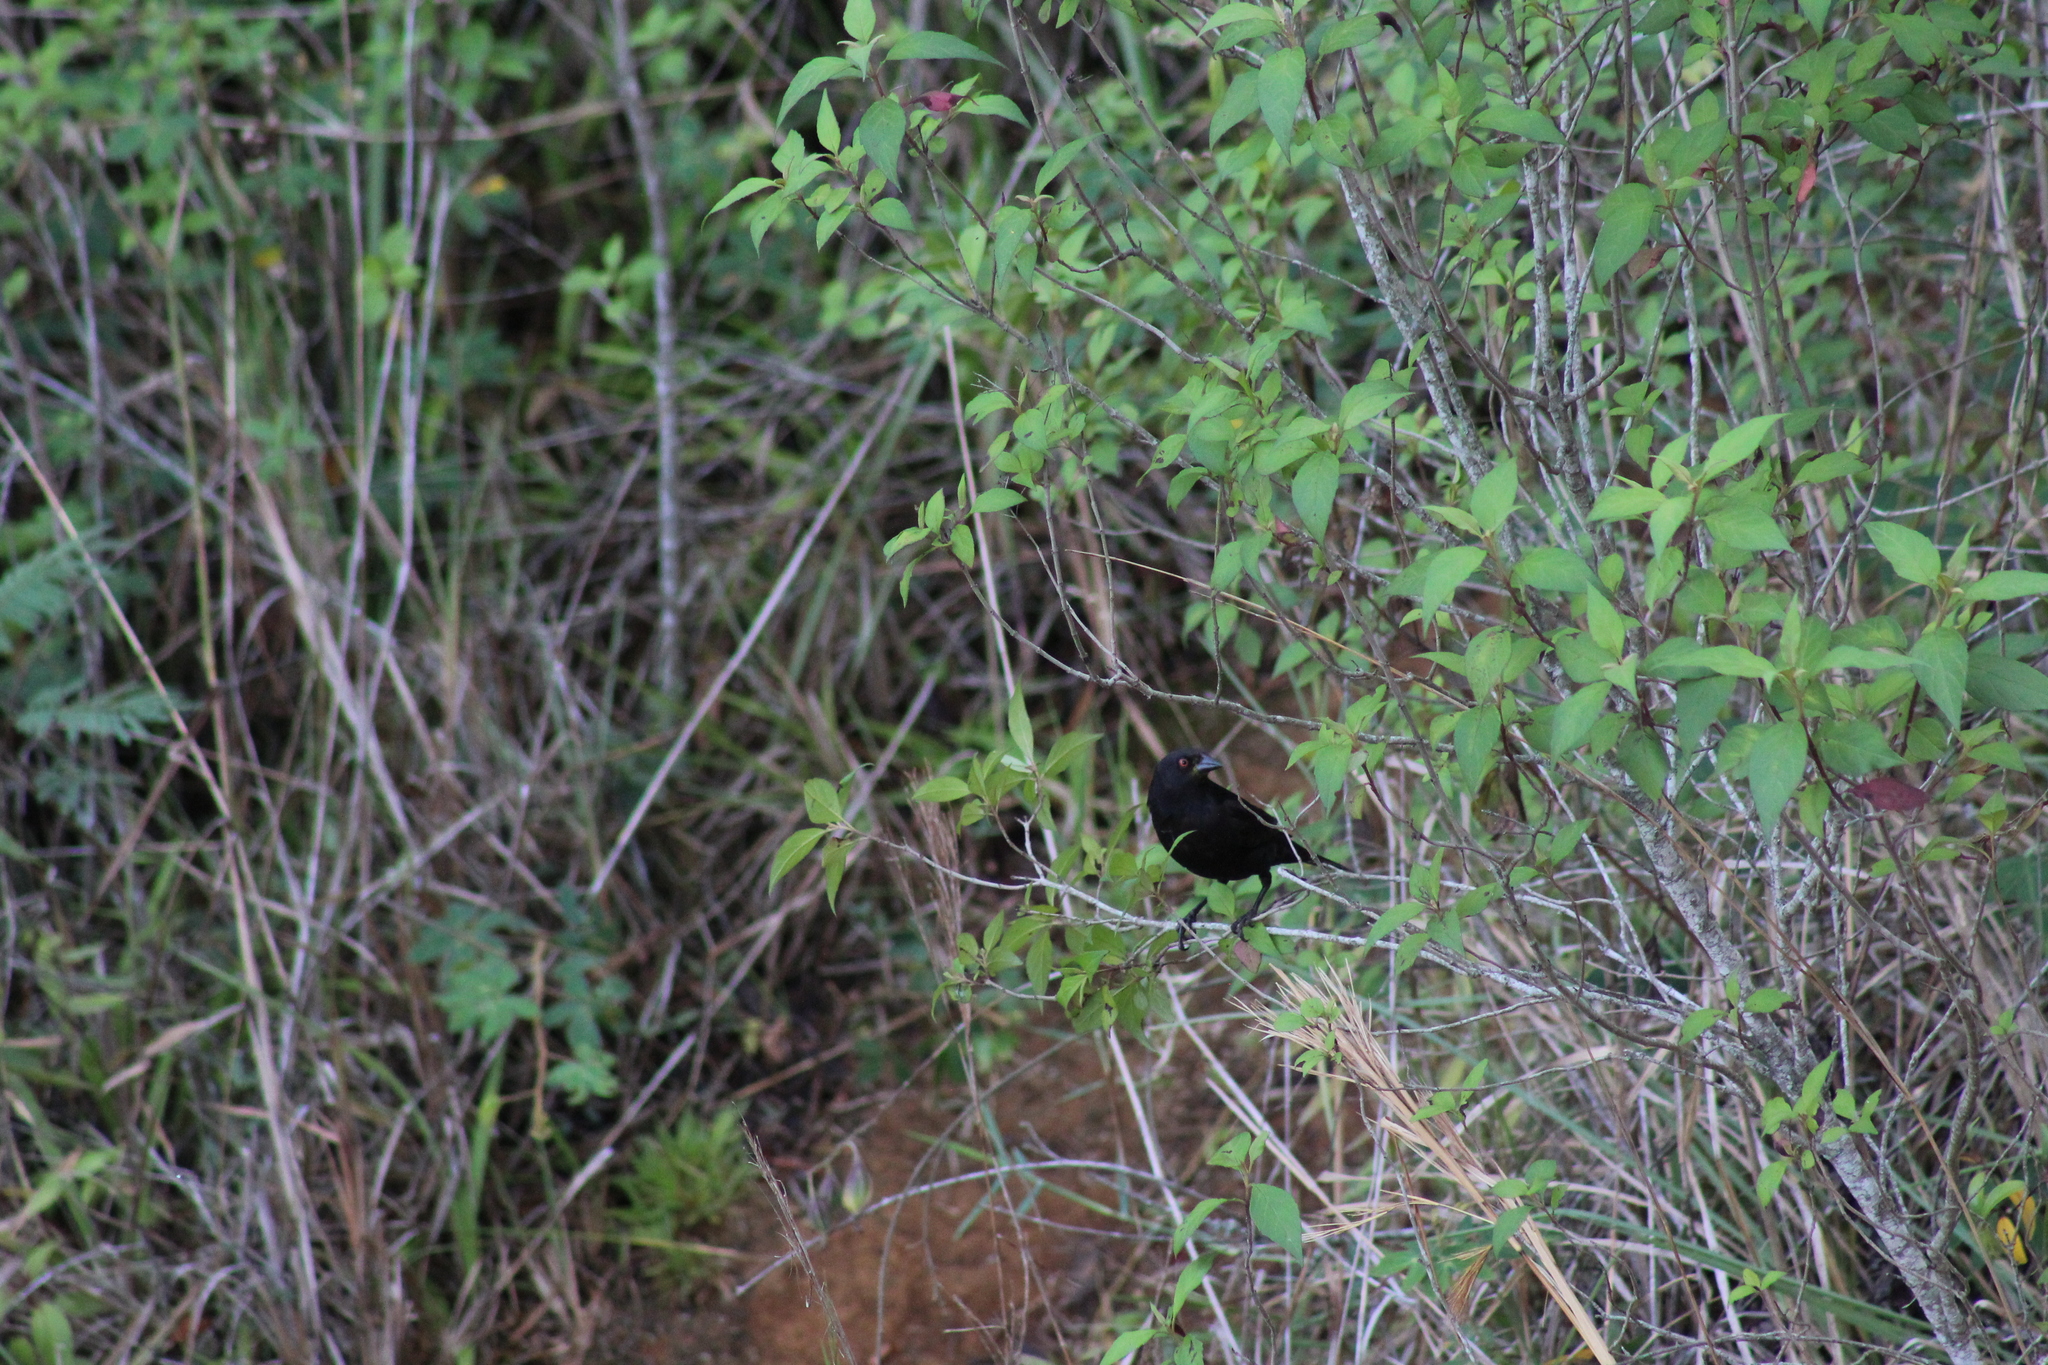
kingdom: Animalia
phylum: Chordata
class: Aves
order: Passeriformes
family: Icteridae
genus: Molothrus
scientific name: Molothrus aeneus
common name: Bronzed cowbird
